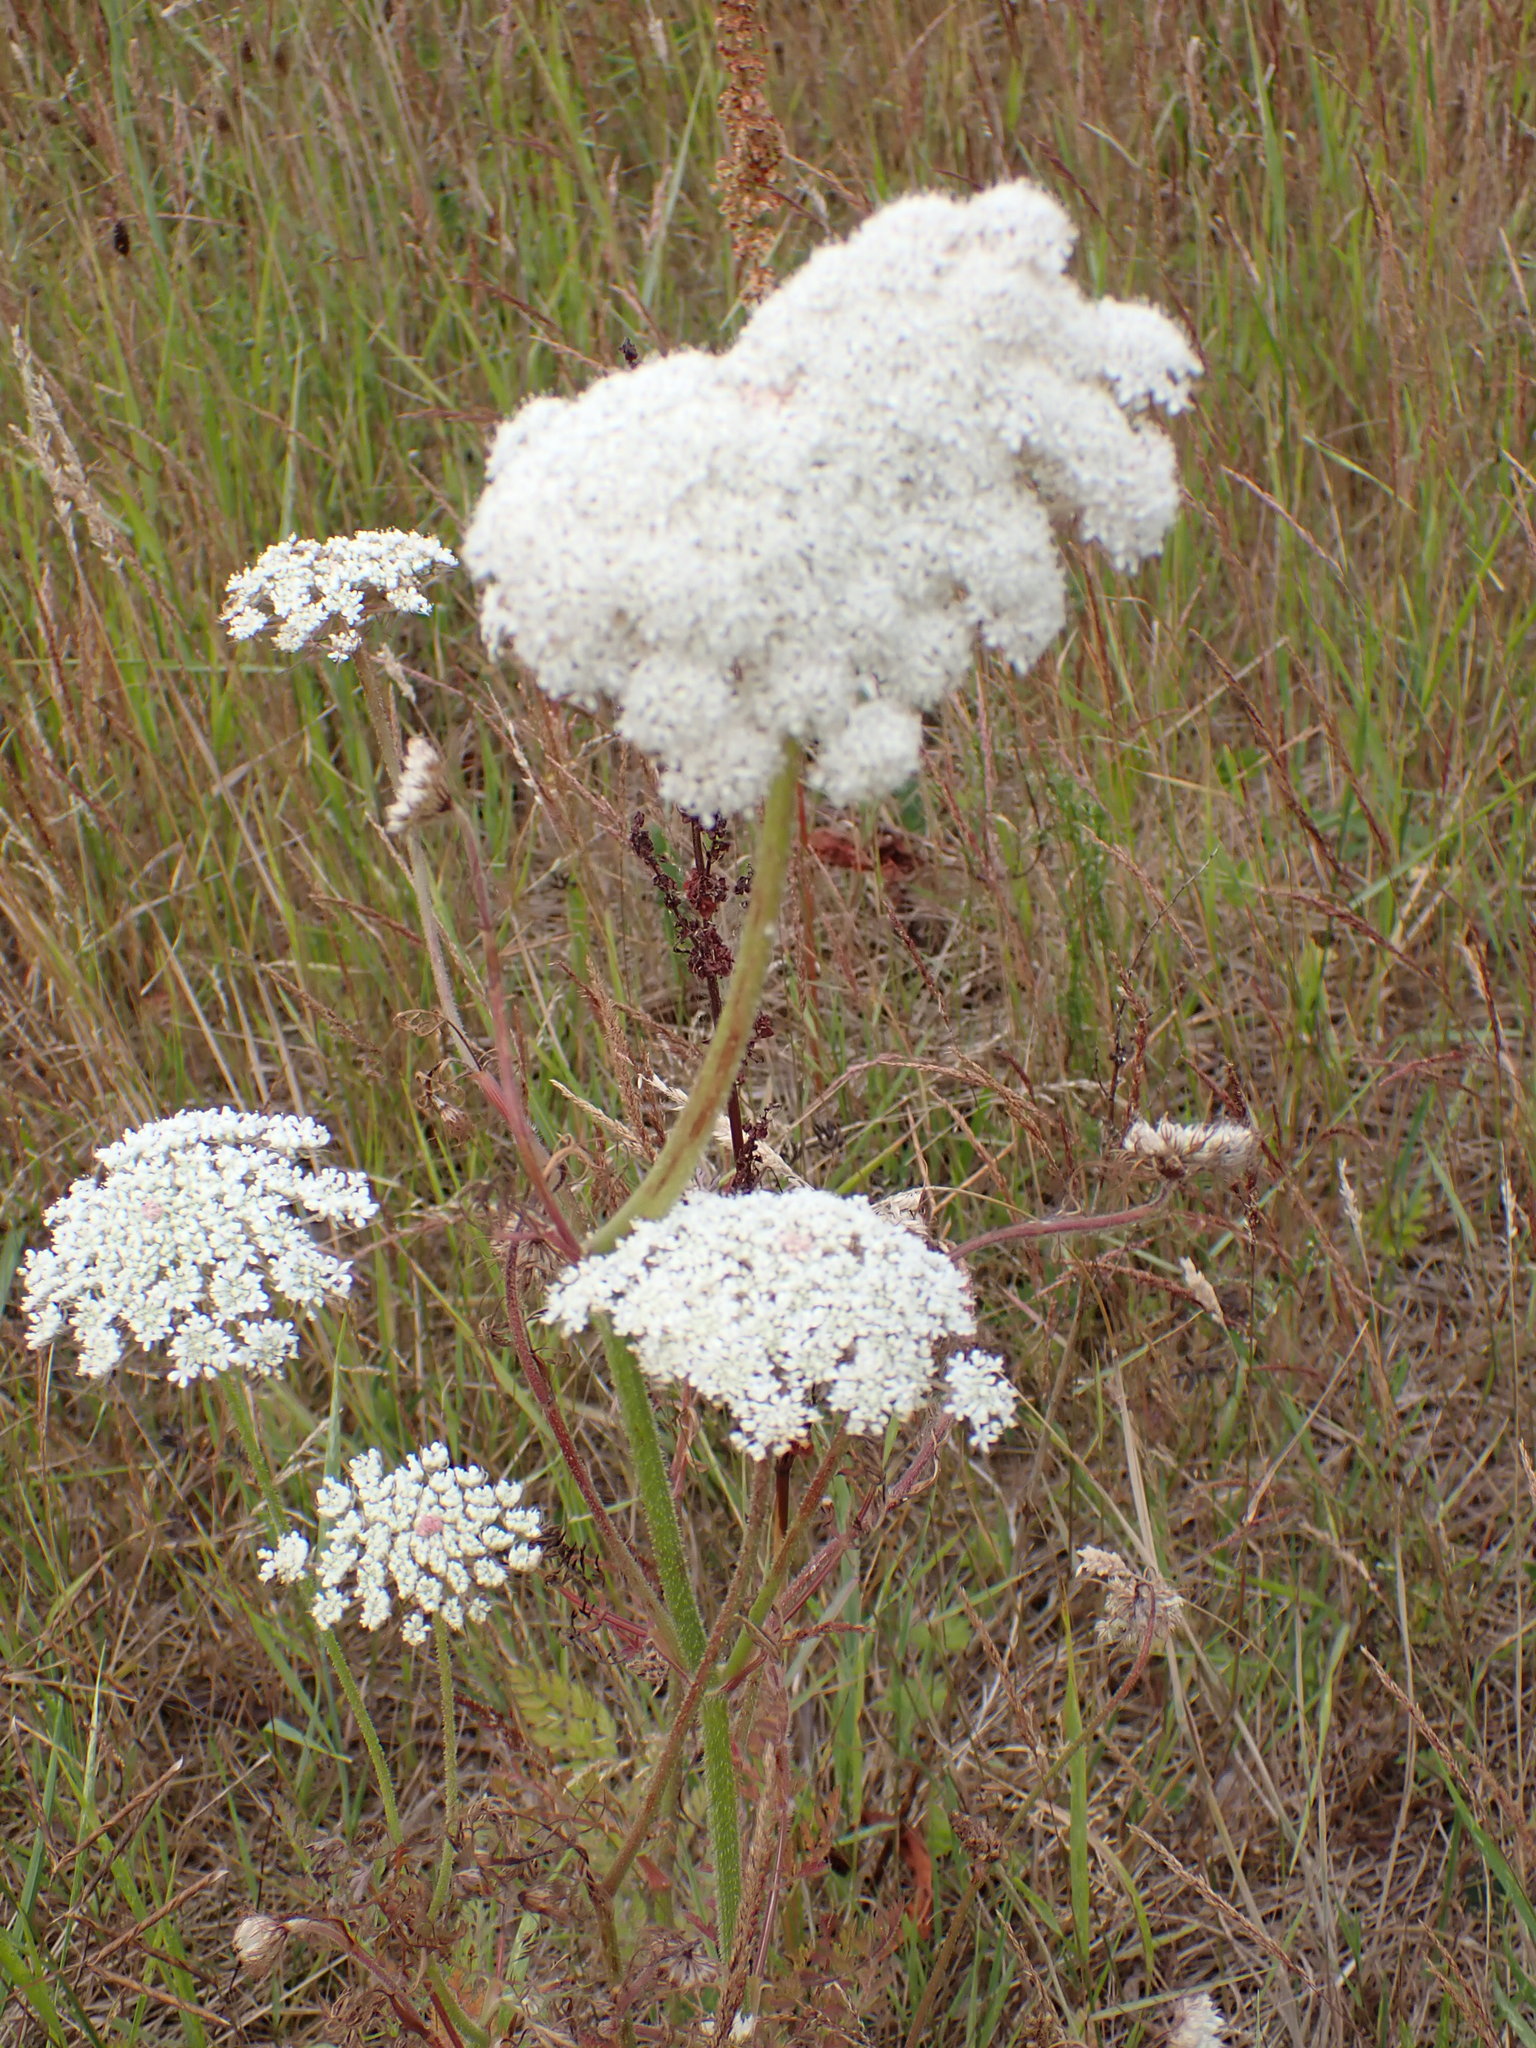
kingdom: Plantae
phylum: Tracheophyta
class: Magnoliopsida
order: Apiales
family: Apiaceae
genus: Daucus
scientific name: Daucus carota
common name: Wild carrot
